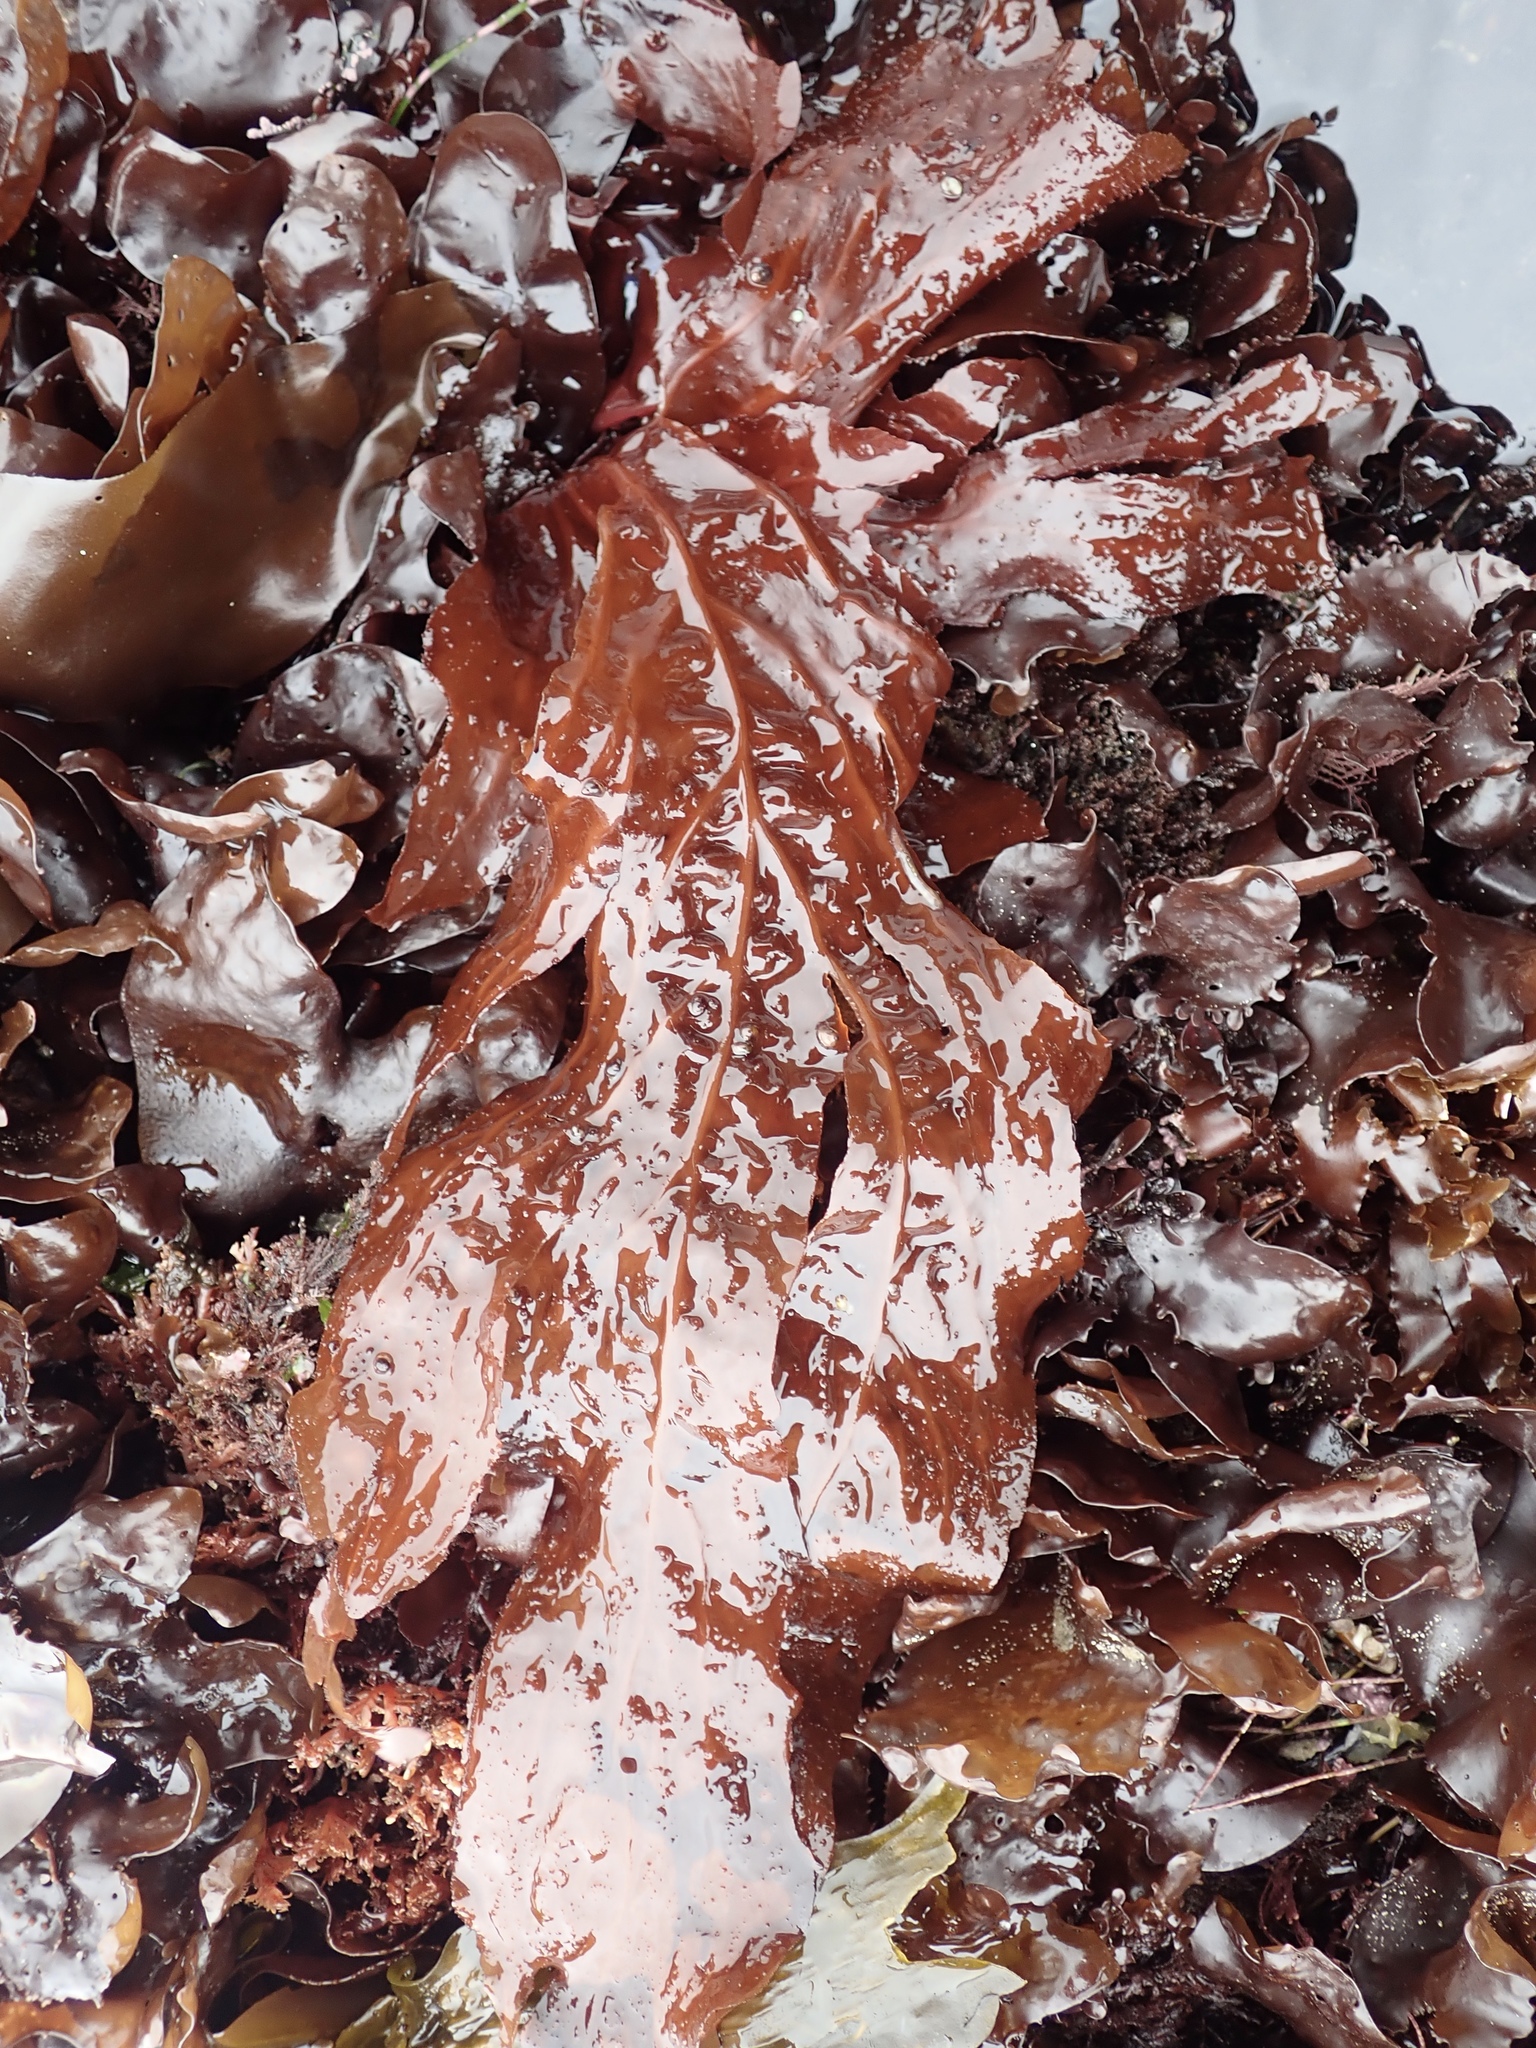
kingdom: Plantae
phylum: Rhodophyta
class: Florideophyceae
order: Gigartinales
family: Kallymeniaceae
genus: Erythrophyllum
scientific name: Erythrophyllum delesserioides
